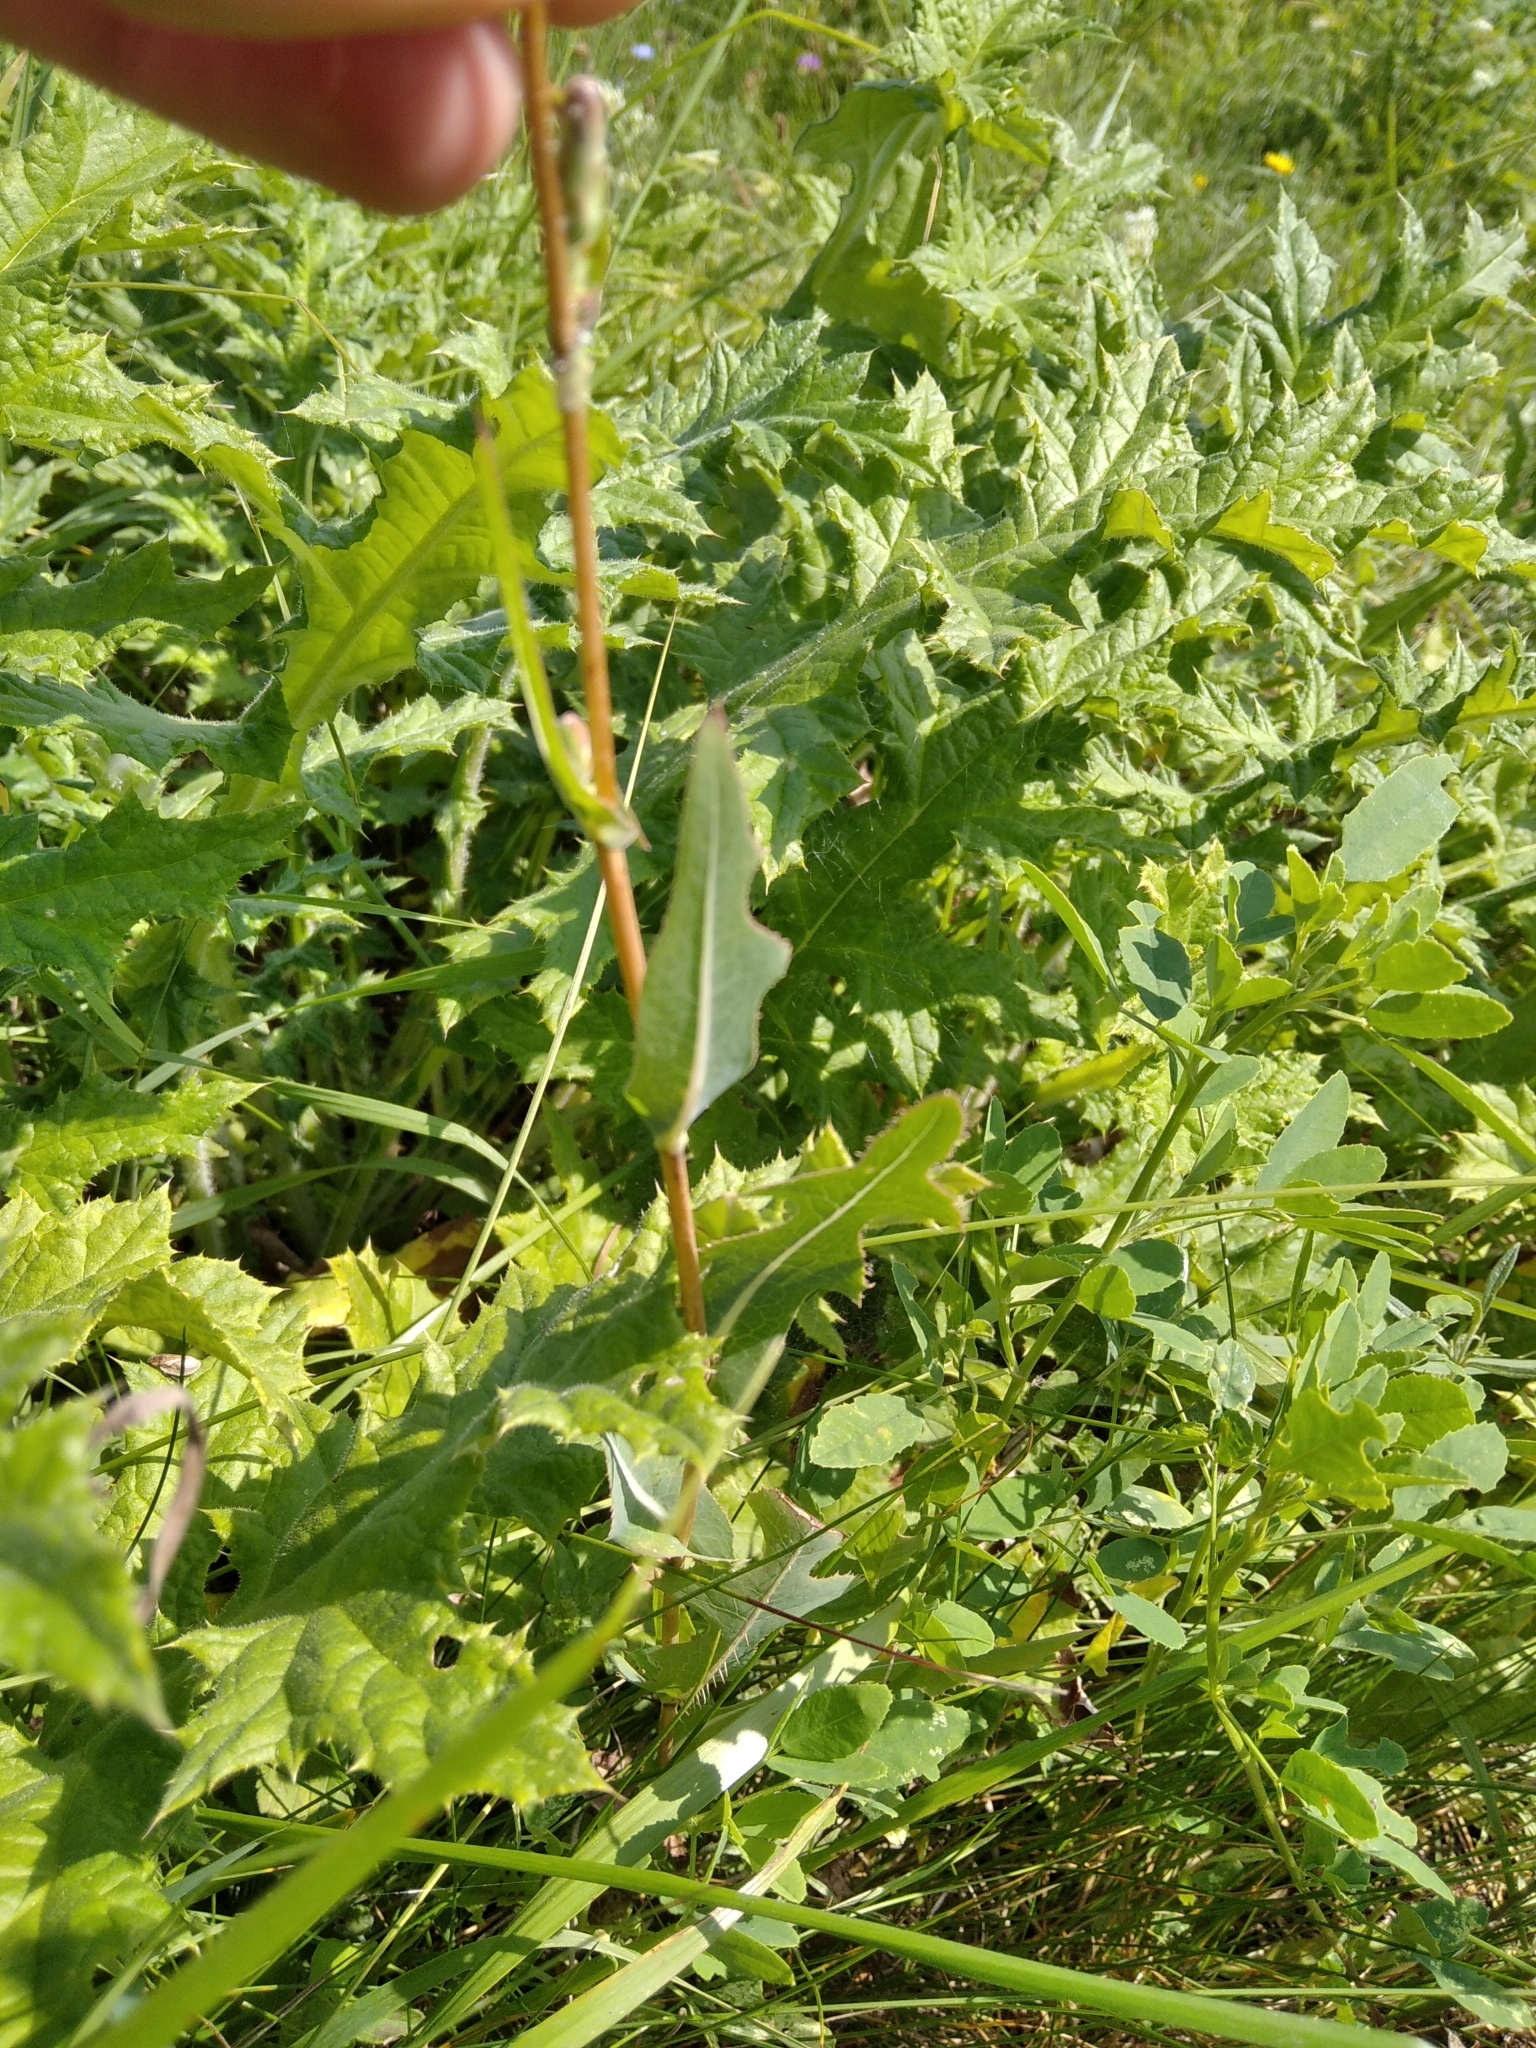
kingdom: Plantae
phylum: Tracheophyta
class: Magnoliopsida
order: Asterales
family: Asteraceae
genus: Lactuca
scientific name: Lactuca serriola
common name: Prickly lettuce
